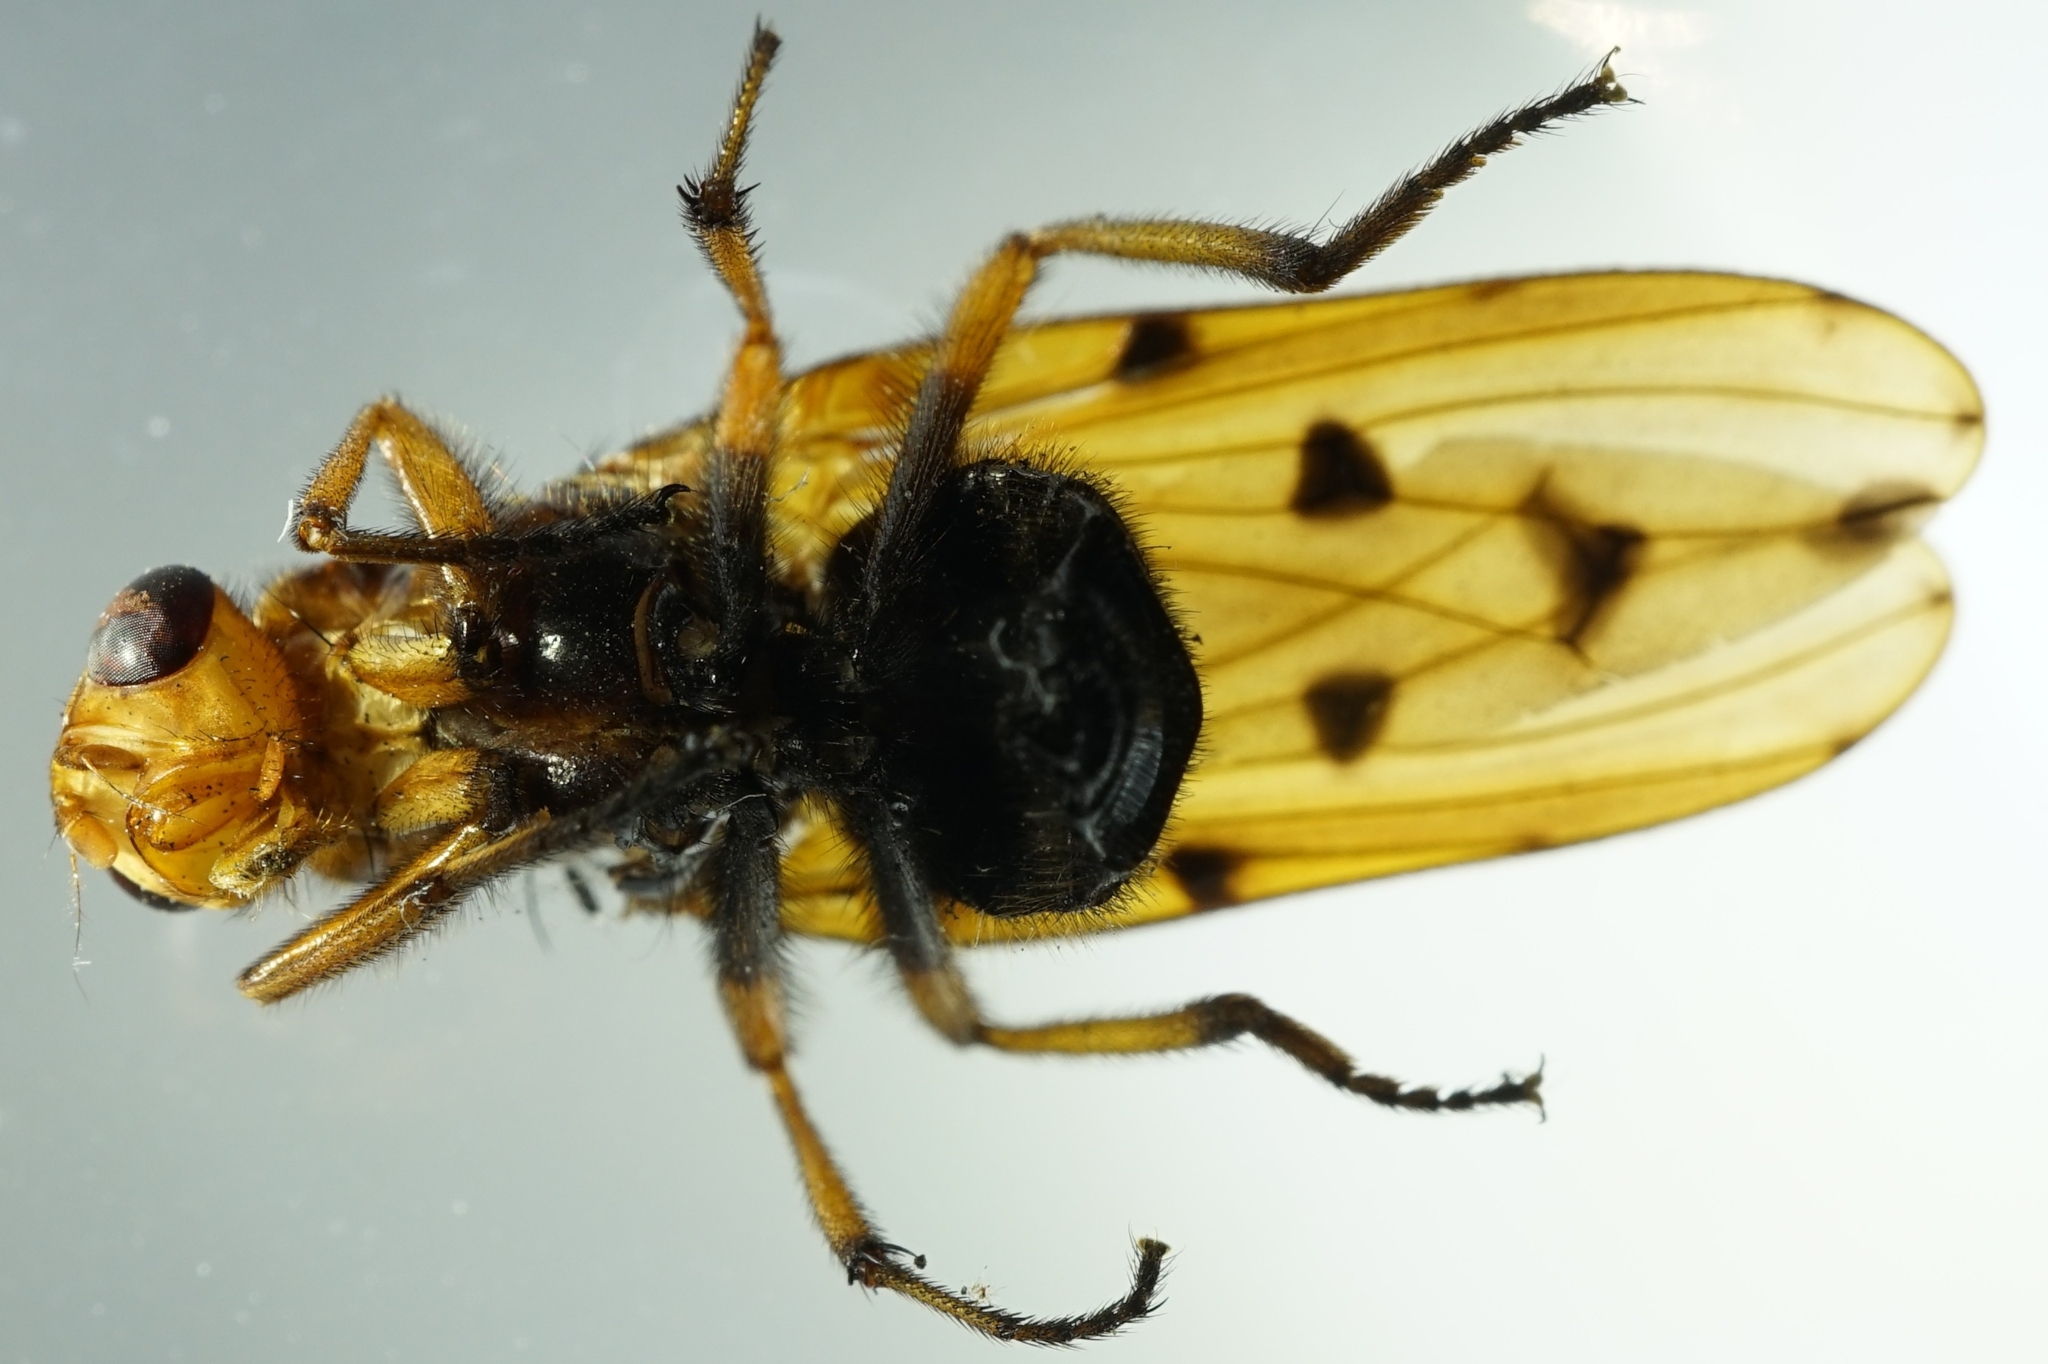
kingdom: Animalia
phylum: Arthropoda
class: Insecta
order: Diptera
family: Dryomyzidae
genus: Dryomyza
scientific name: Dryomyza formosa
